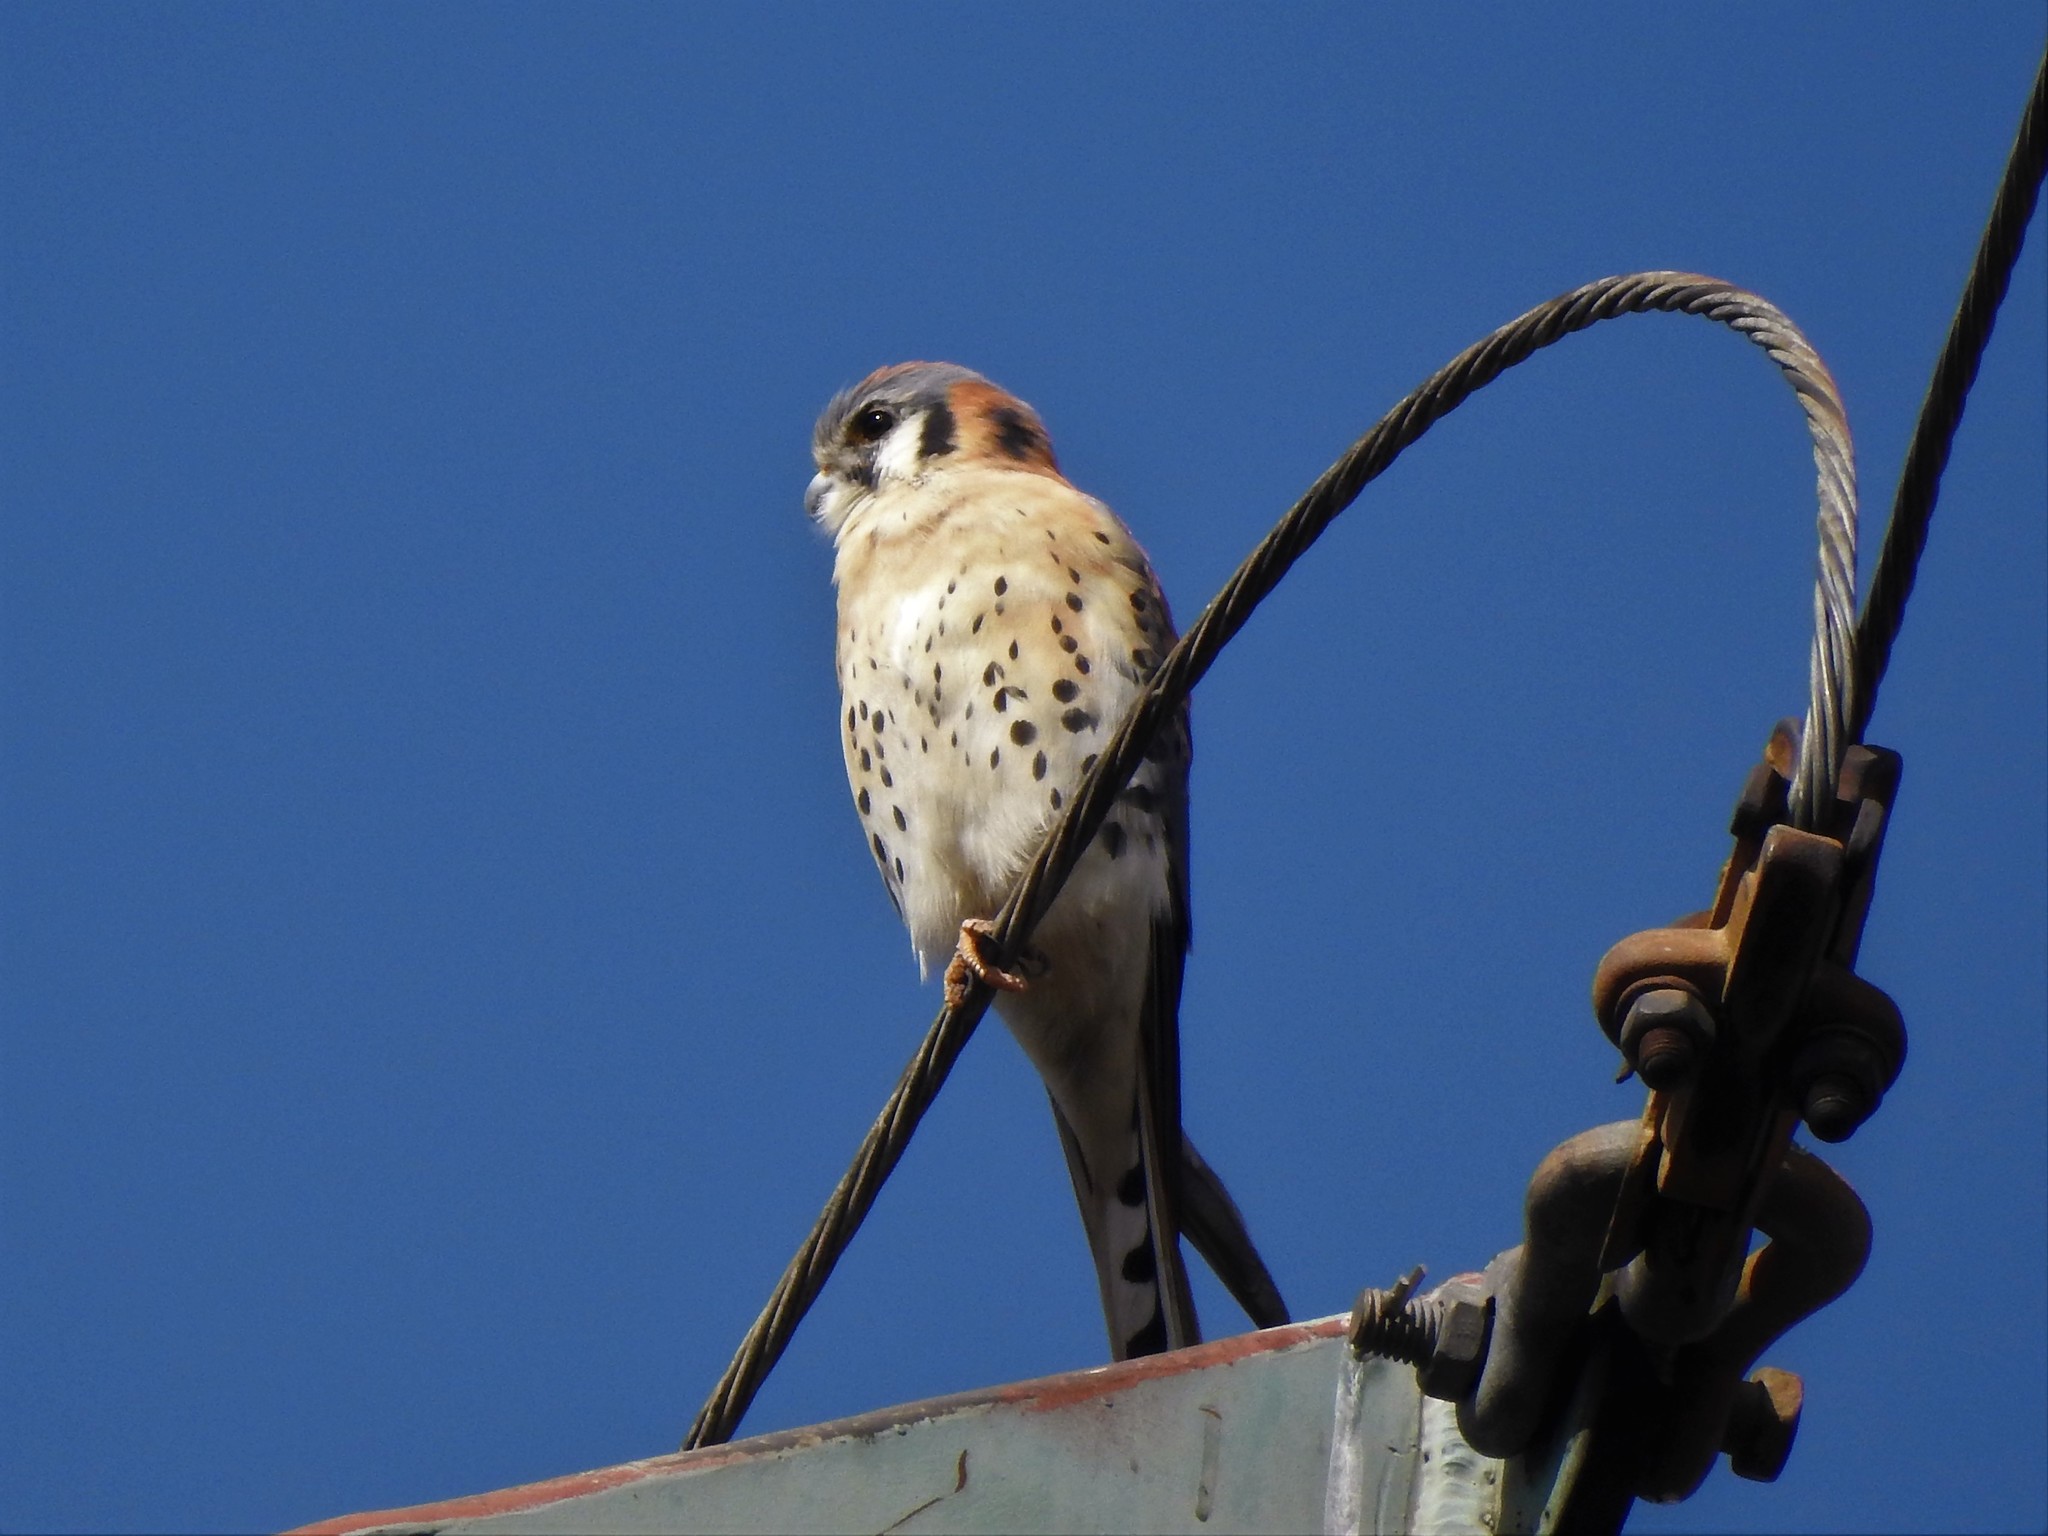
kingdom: Animalia
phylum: Chordata
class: Aves
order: Falconiformes
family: Falconidae
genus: Falco
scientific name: Falco sparverius
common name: American kestrel
